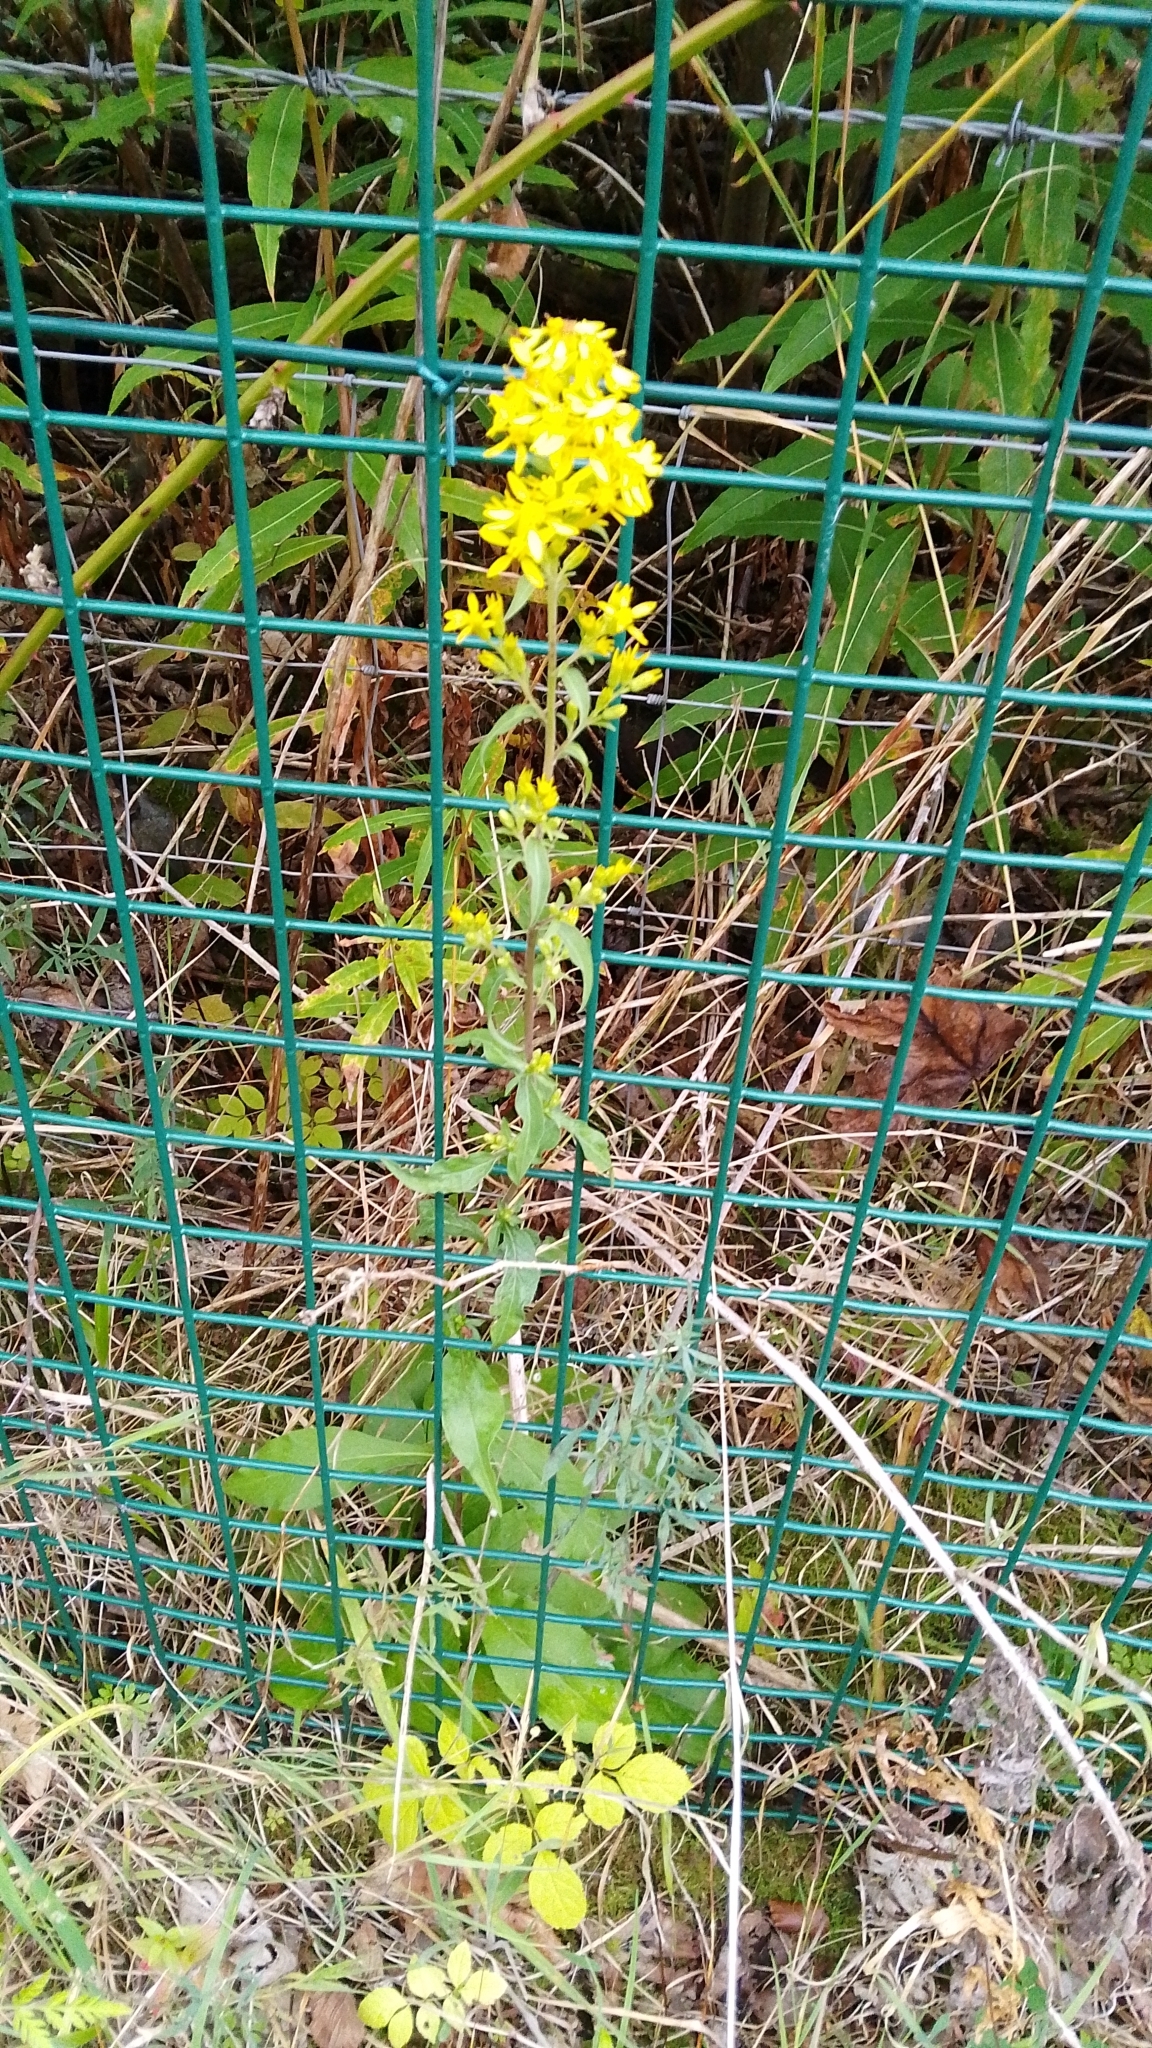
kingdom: Plantae
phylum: Tracheophyta
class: Magnoliopsida
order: Asterales
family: Asteraceae
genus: Solidago
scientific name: Solidago virgaurea
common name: Goldenrod
